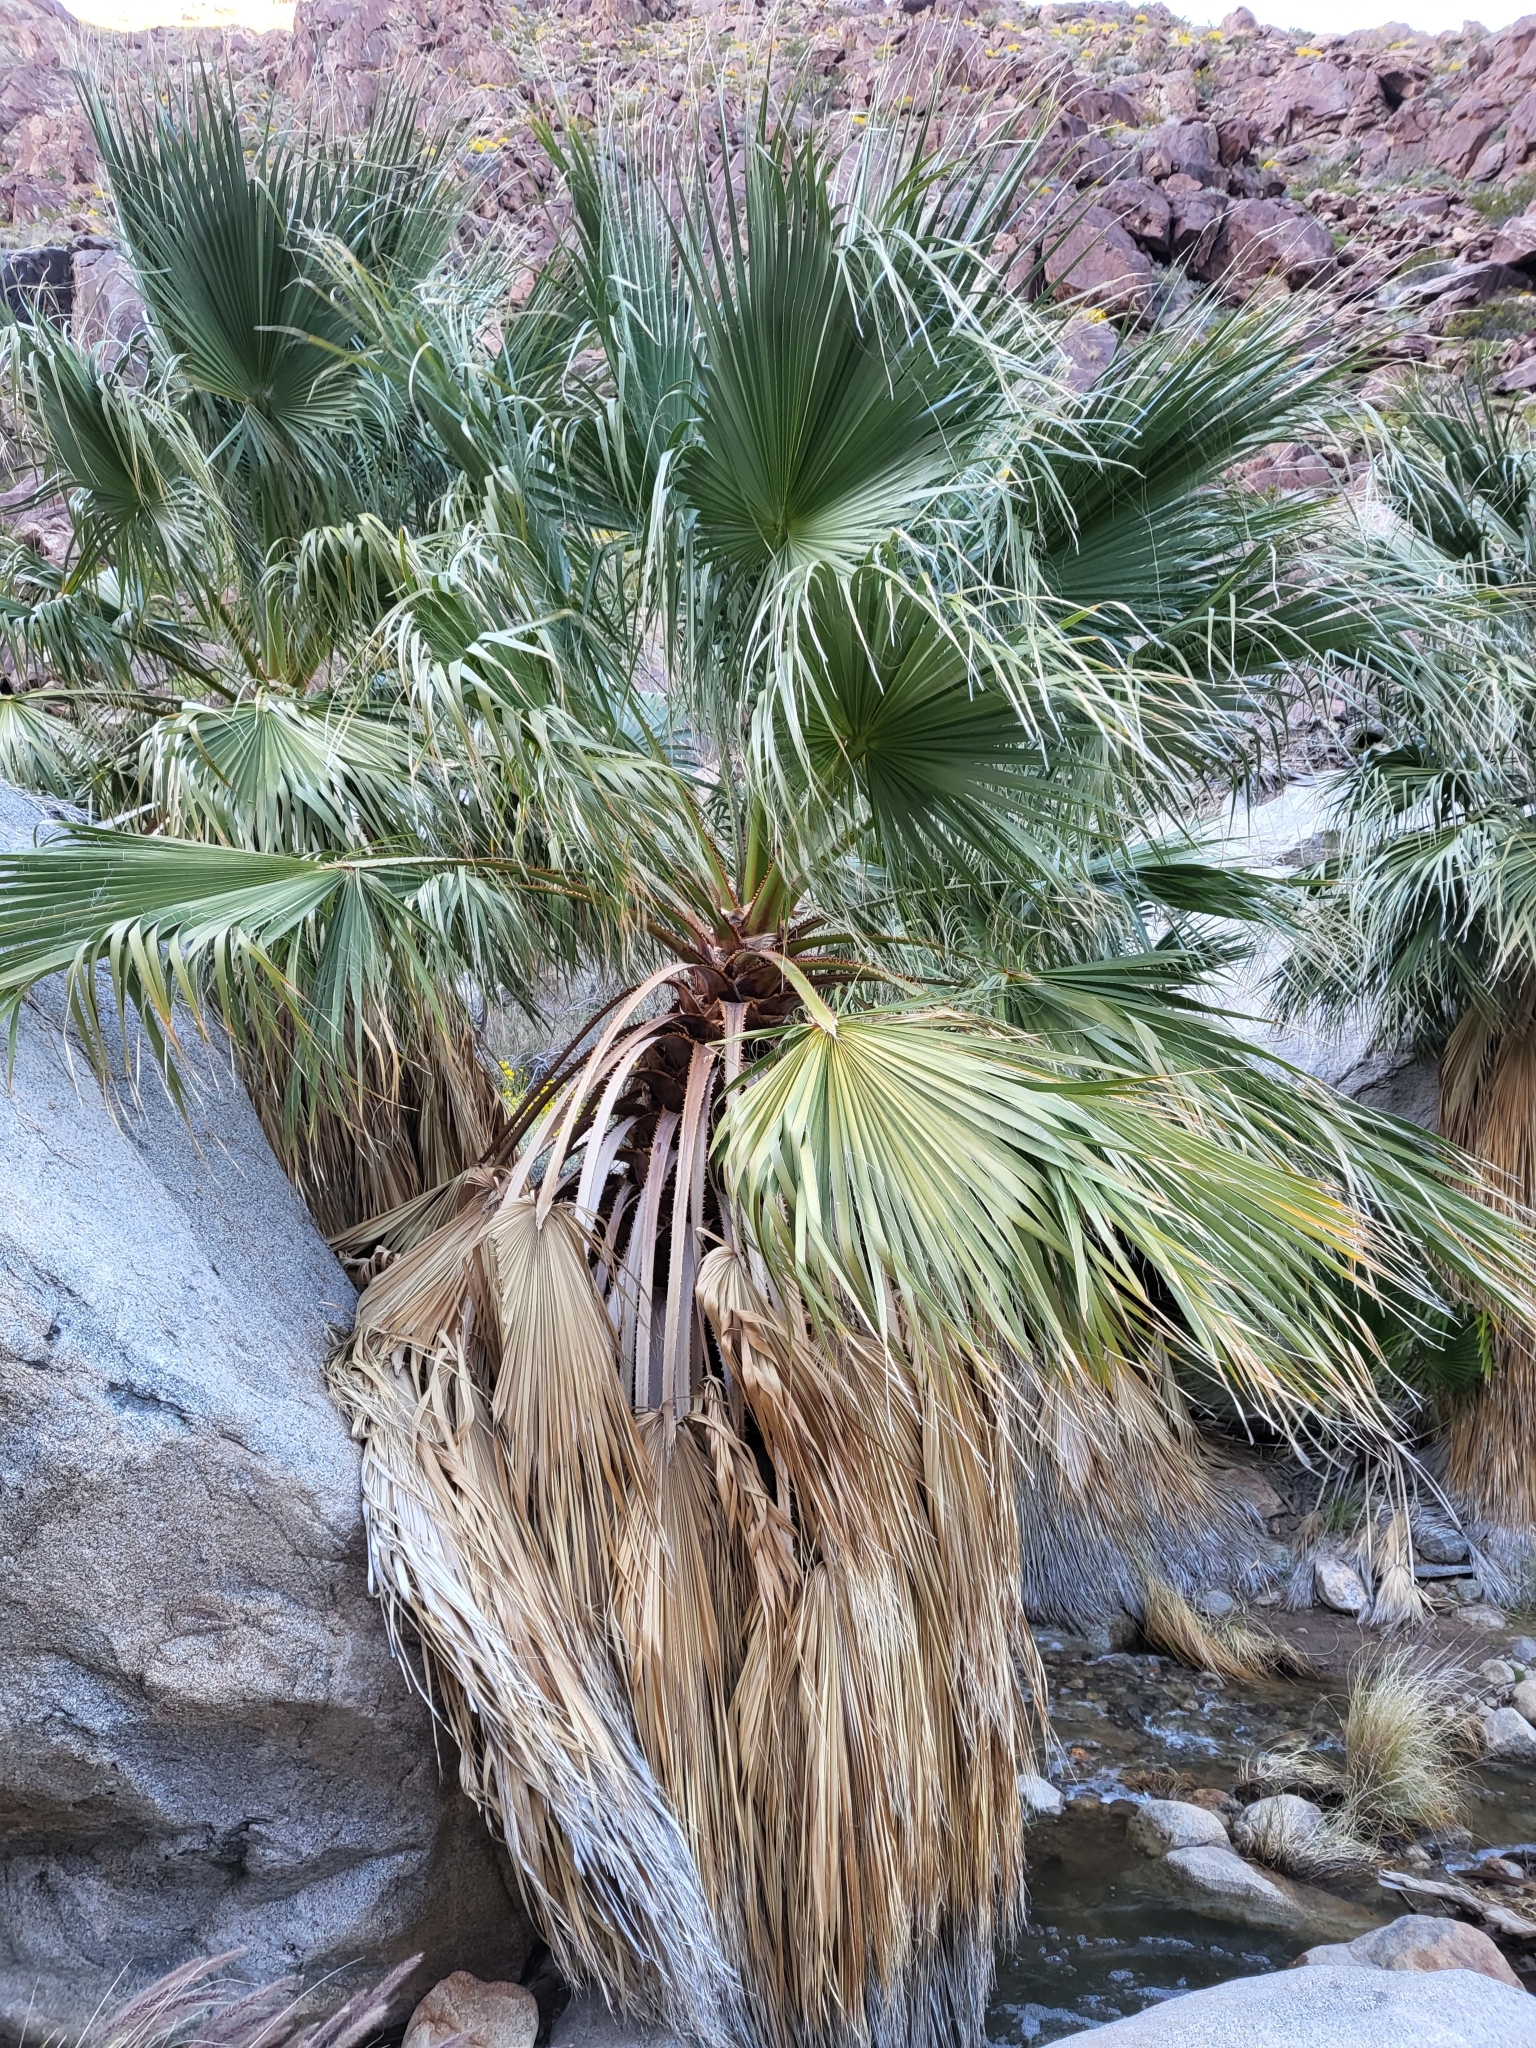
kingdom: Plantae
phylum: Tracheophyta
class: Liliopsida
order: Arecales
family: Arecaceae
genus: Washingtonia
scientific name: Washingtonia filifera
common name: California fan palm
